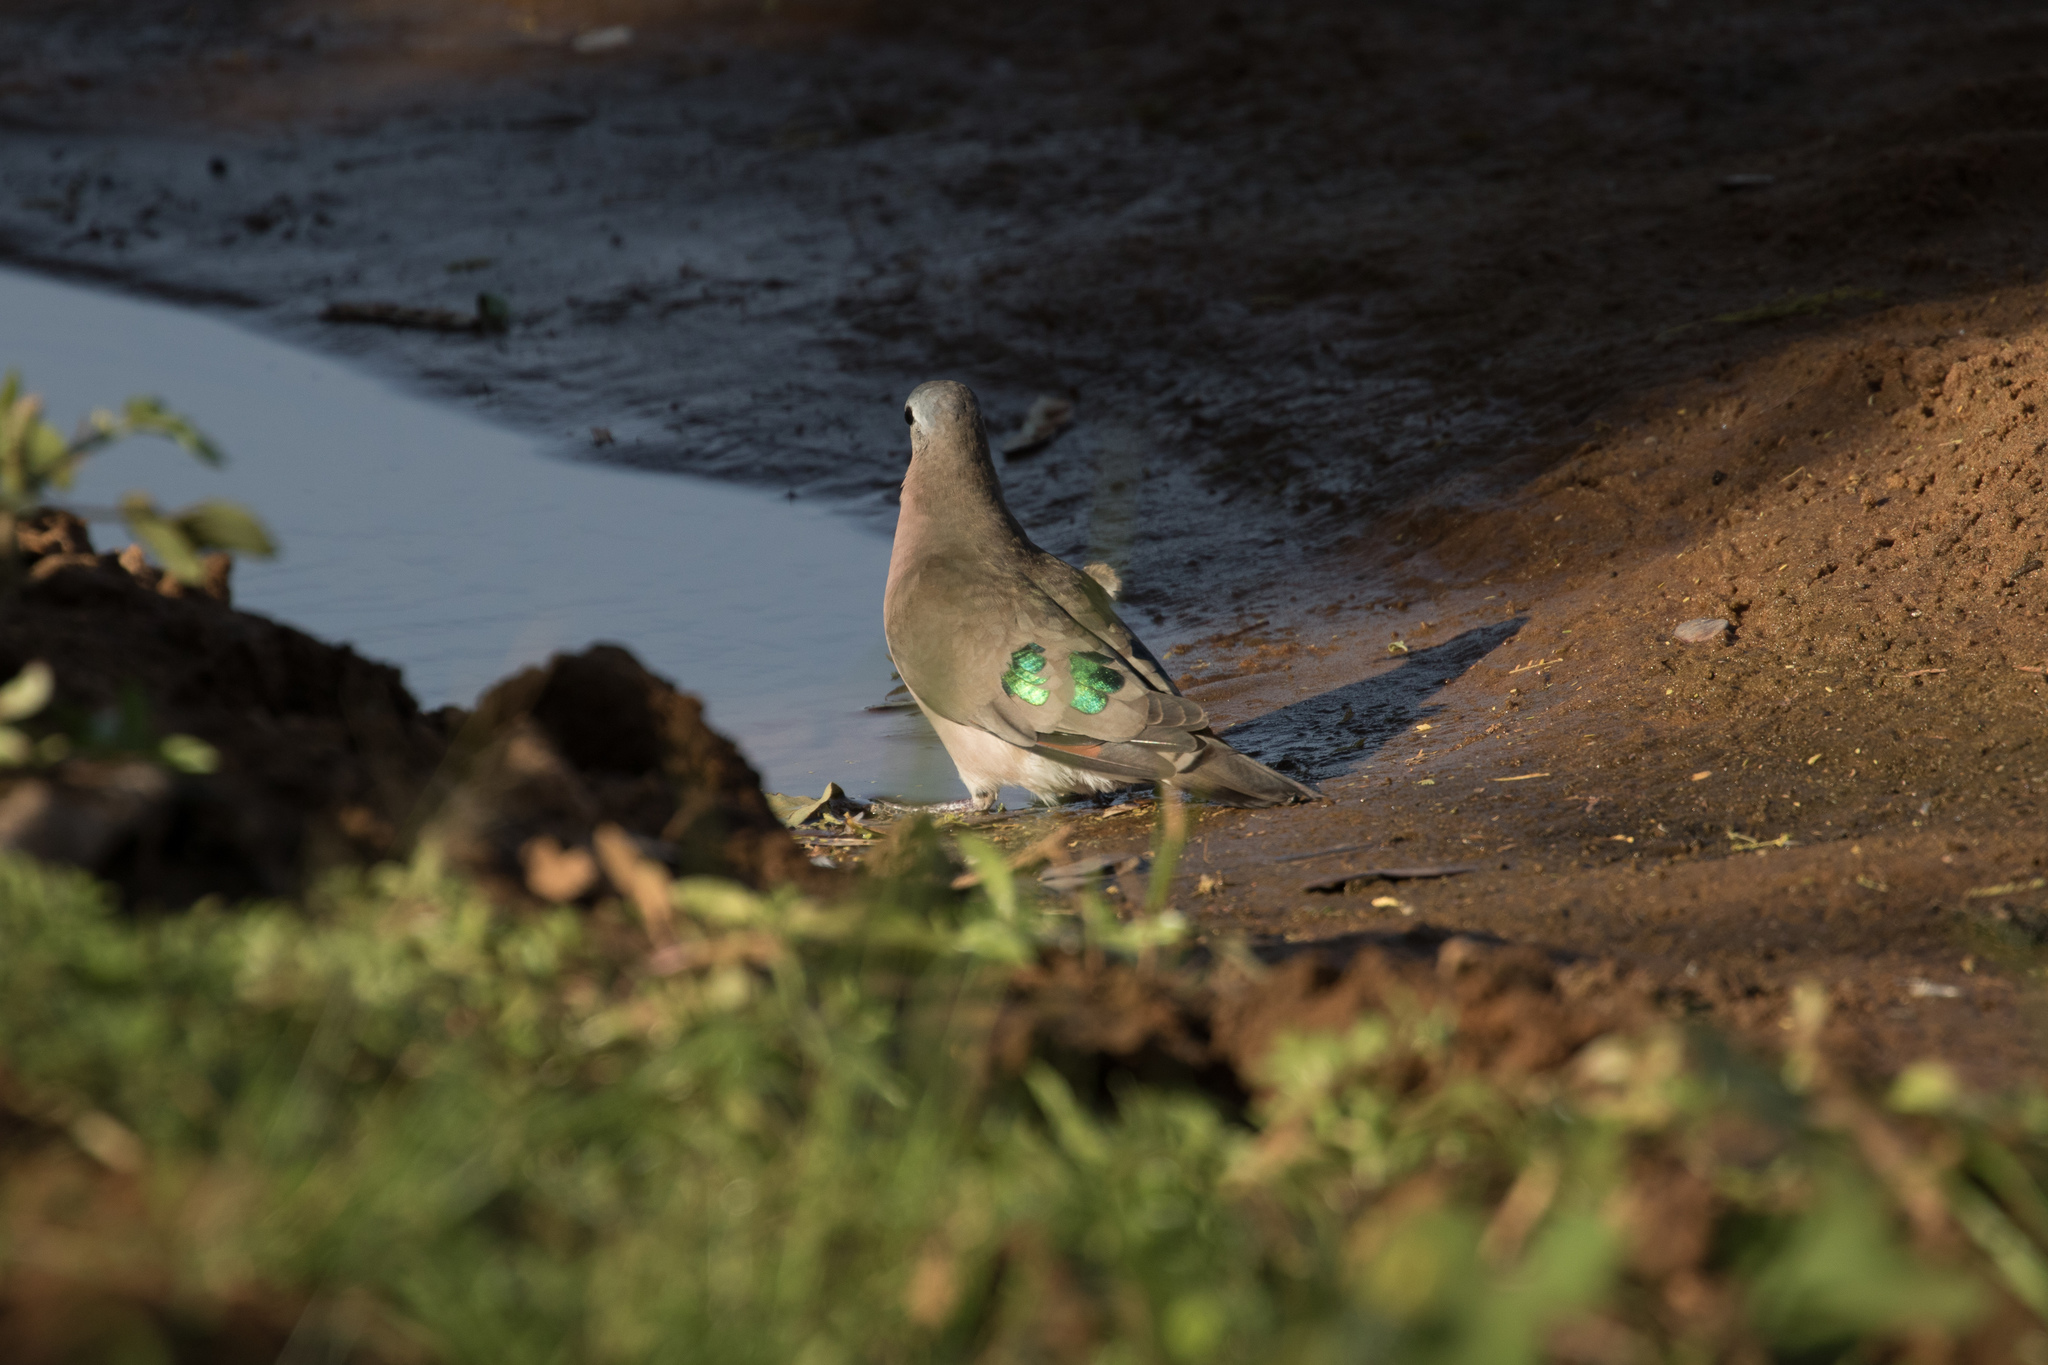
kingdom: Animalia
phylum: Chordata
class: Aves
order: Columbiformes
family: Columbidae
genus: Turtur
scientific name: Turtur chalcospilos
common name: Emerald-spotted wood dove
